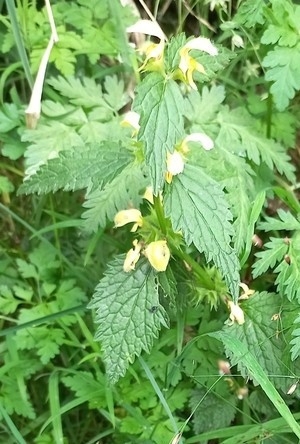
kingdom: Plantae
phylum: Tracheophyta
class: Magnoliopsida
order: Lamiales
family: Lamiaceae
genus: Lamium
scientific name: Lamium galeobdolon
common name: Yellow archangel
